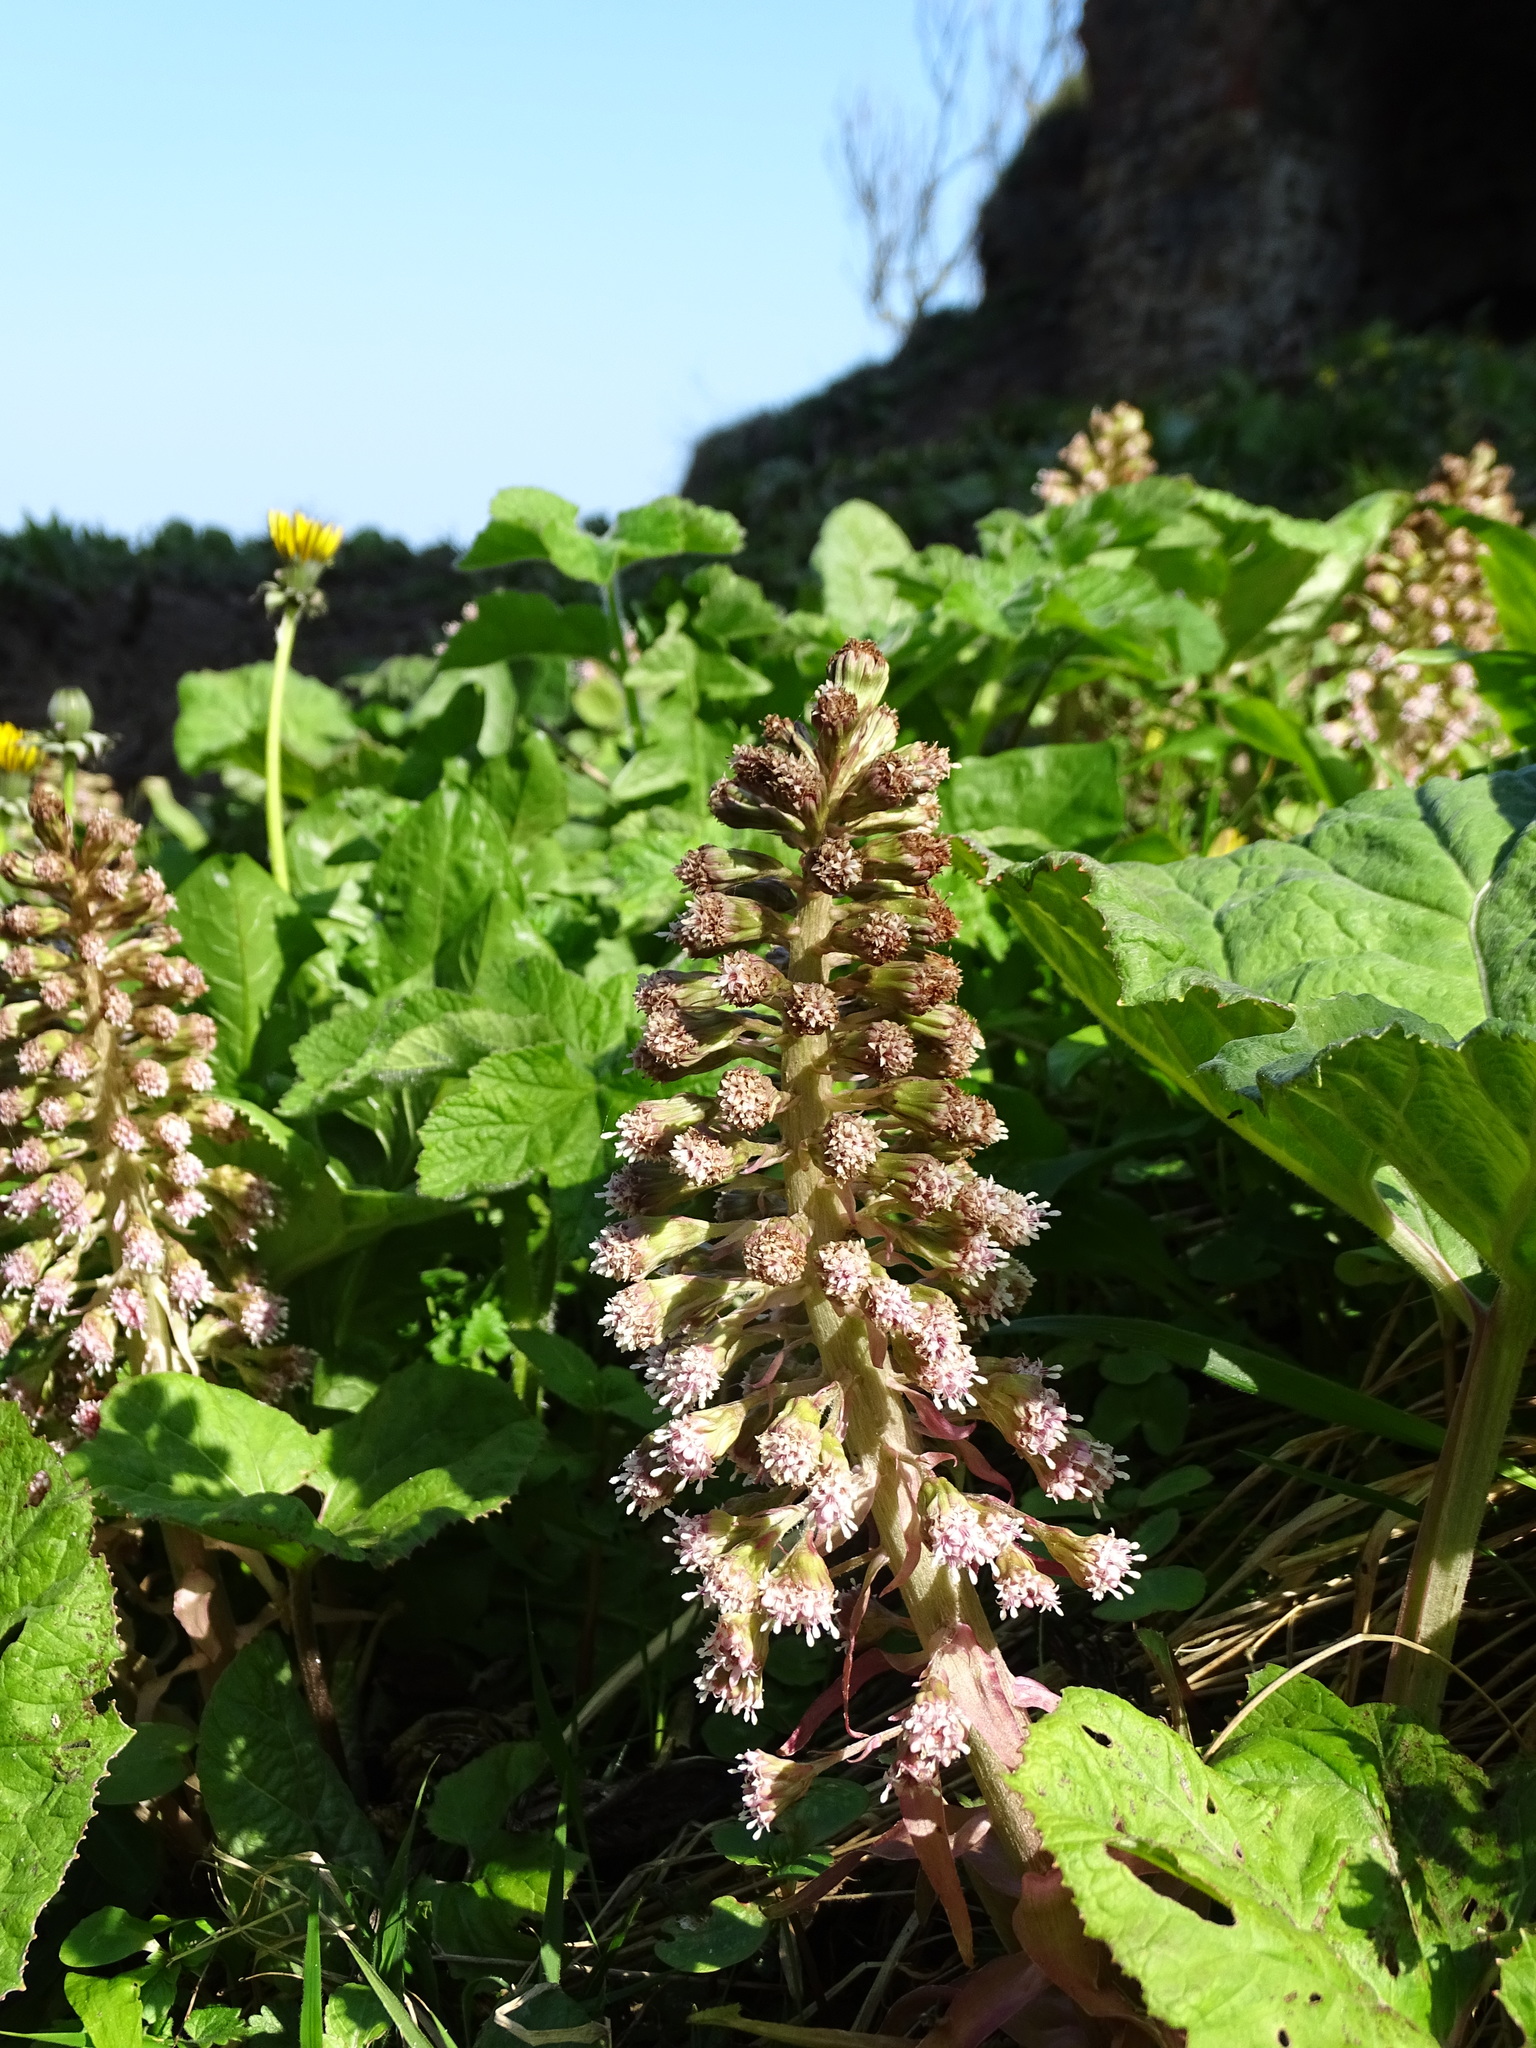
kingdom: Plantae
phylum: Tracheophyta
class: Magnoliopsida
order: Asterales
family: Asteraceae
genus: Petasites
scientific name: Petasites hybridus
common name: Butterbur
